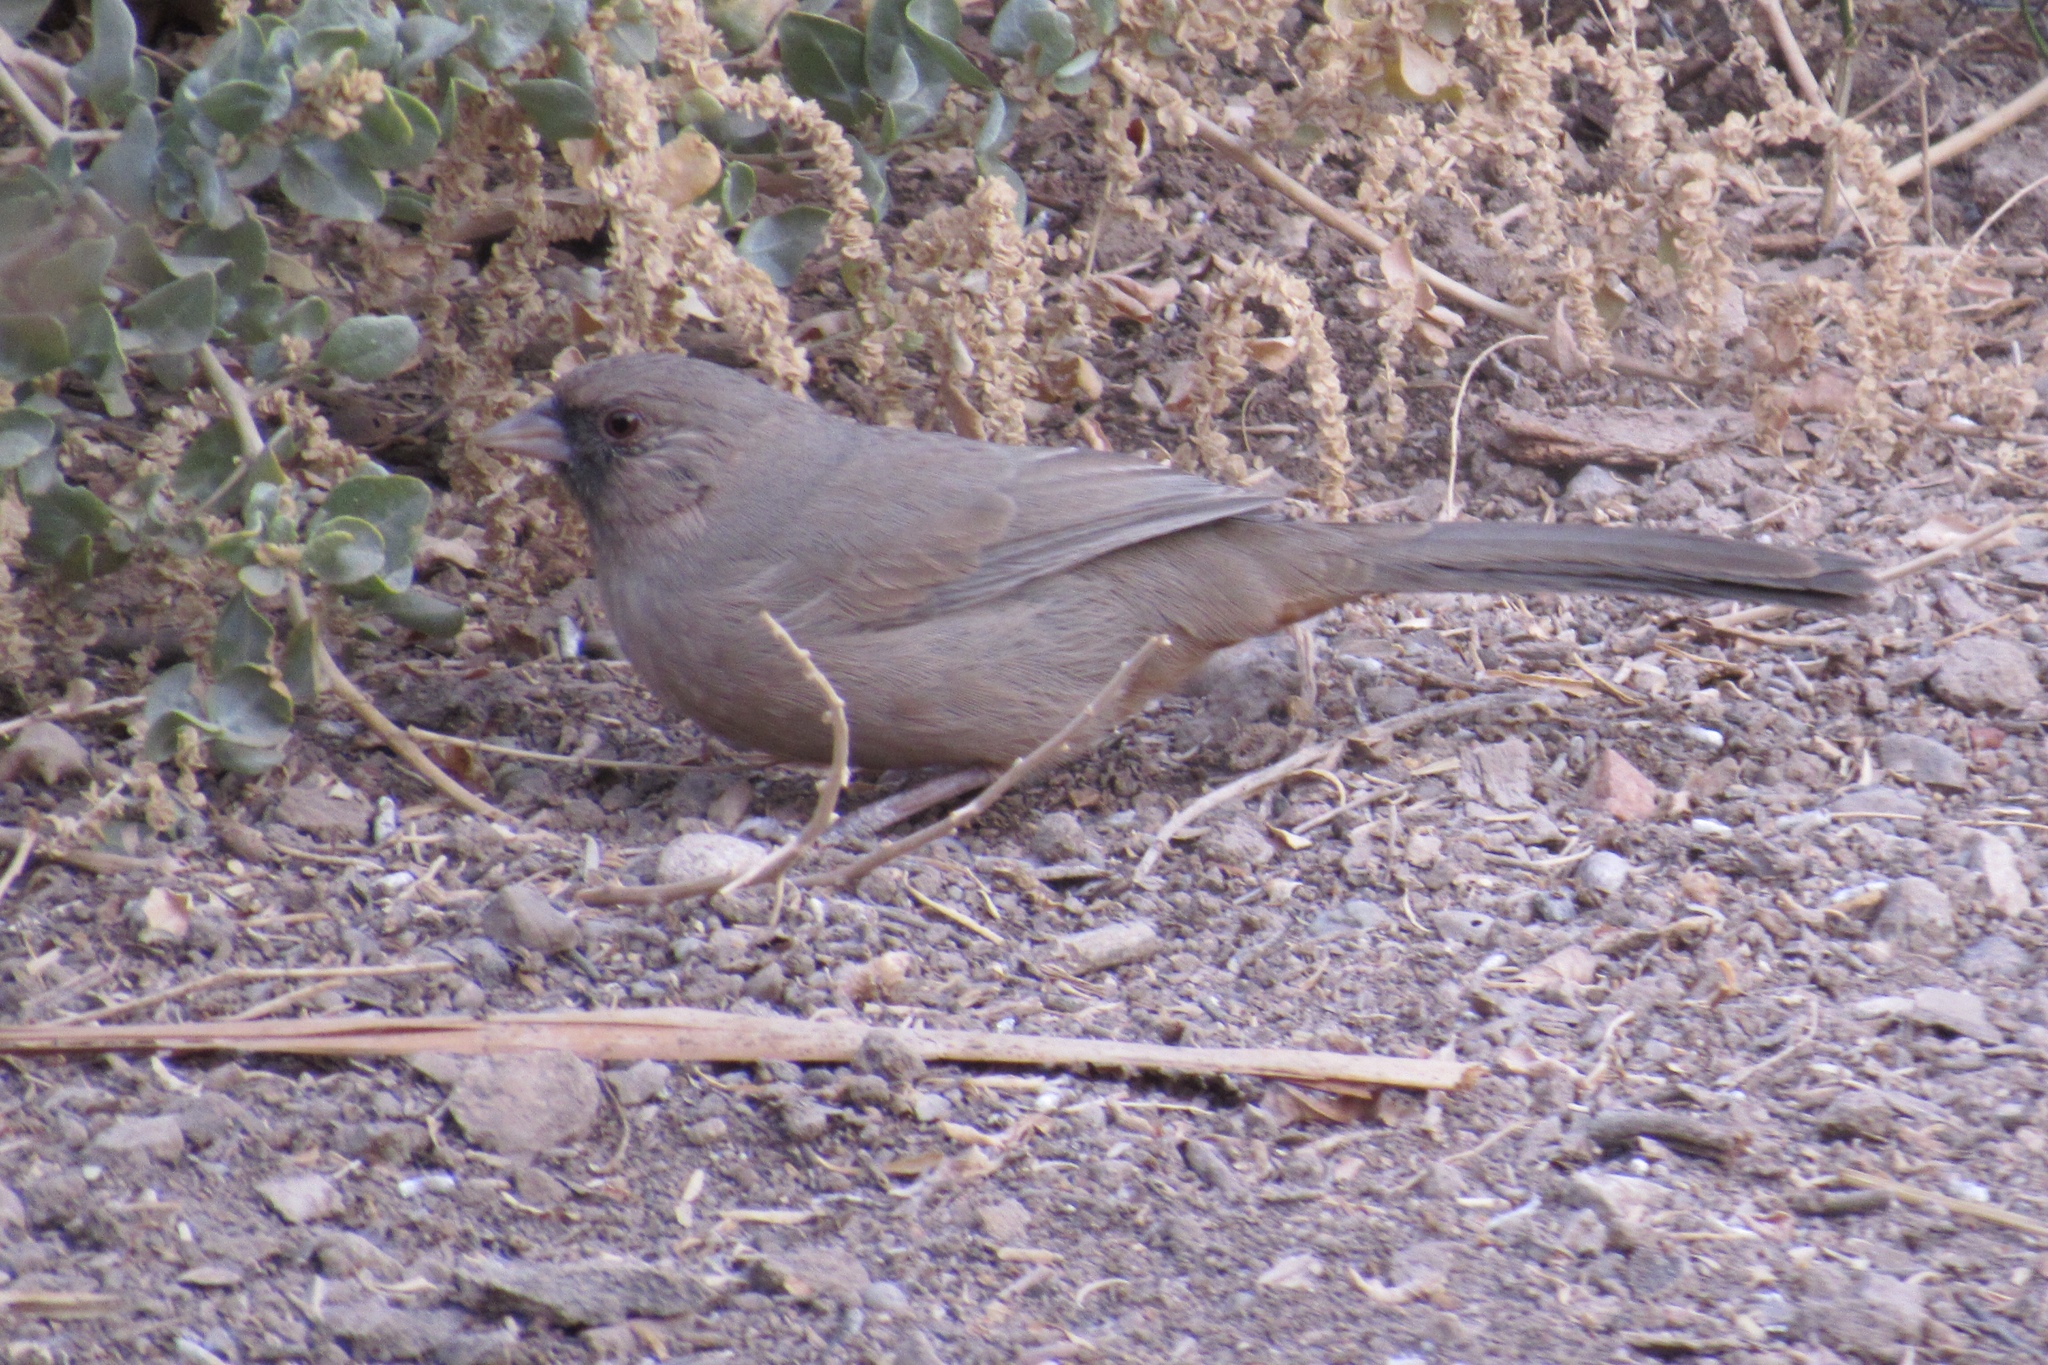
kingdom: Animalia
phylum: Chordata
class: Aves
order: Passeriformes
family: Passerellidae
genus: Melozone
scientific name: Melozone aberti
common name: Abert's towhee
